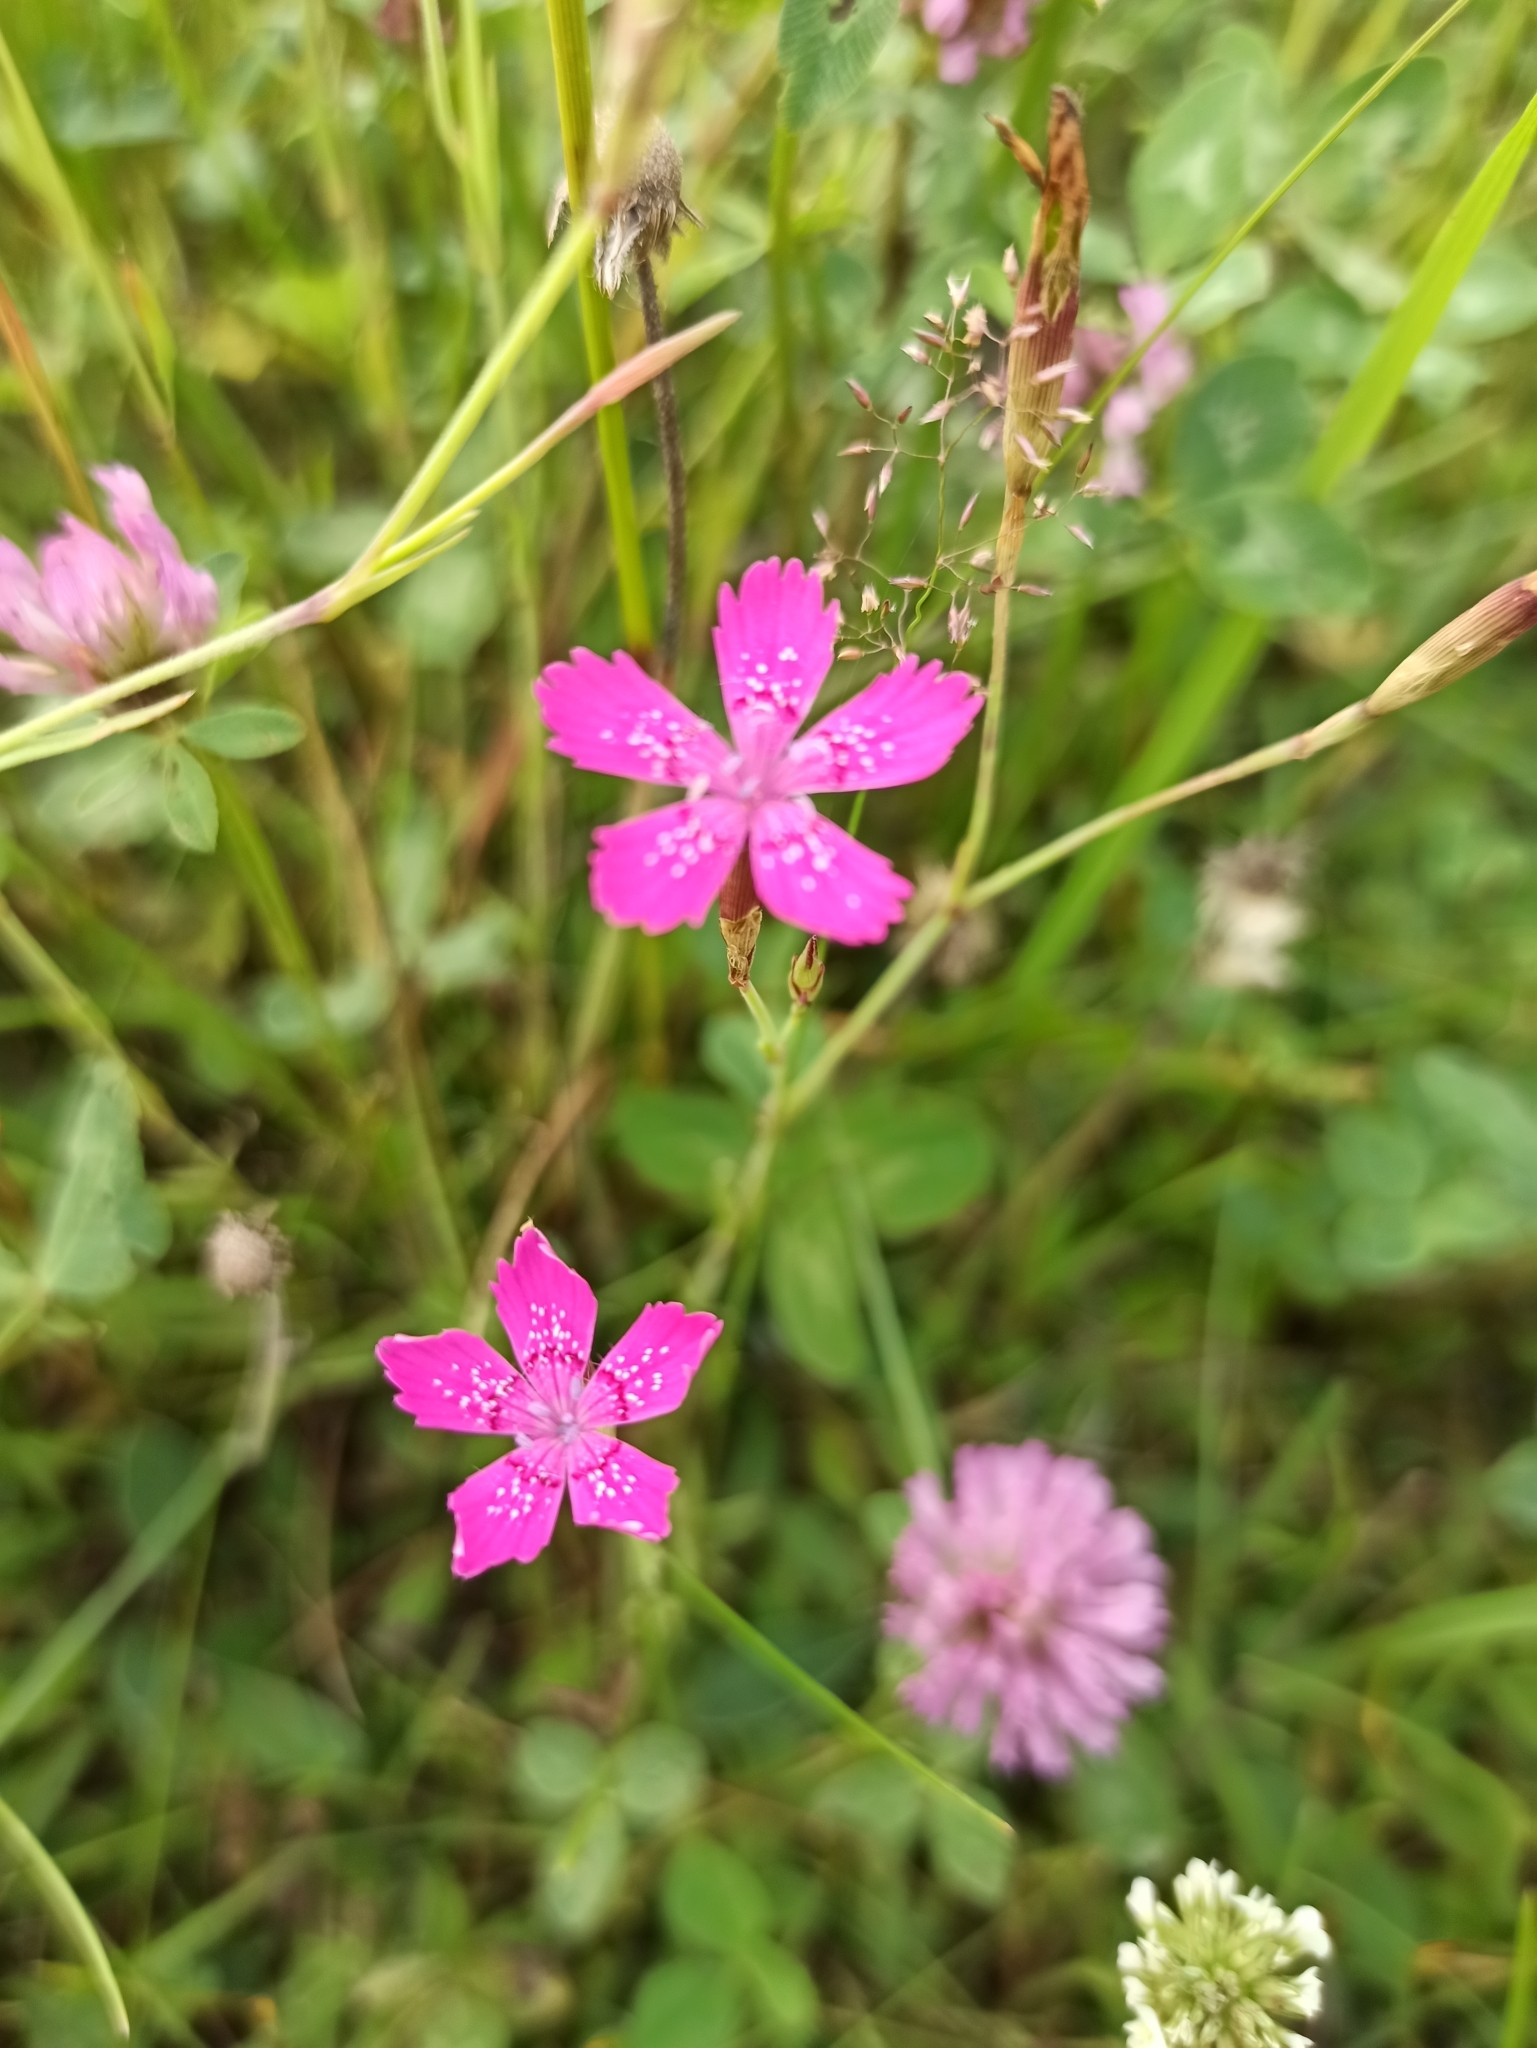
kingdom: Plantae
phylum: Tracheophyta
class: Magnoliopsida
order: Caryophyllales
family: Caryophyllaceae
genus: Dianthus
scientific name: Dianthus deltoides
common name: Maiden pink
